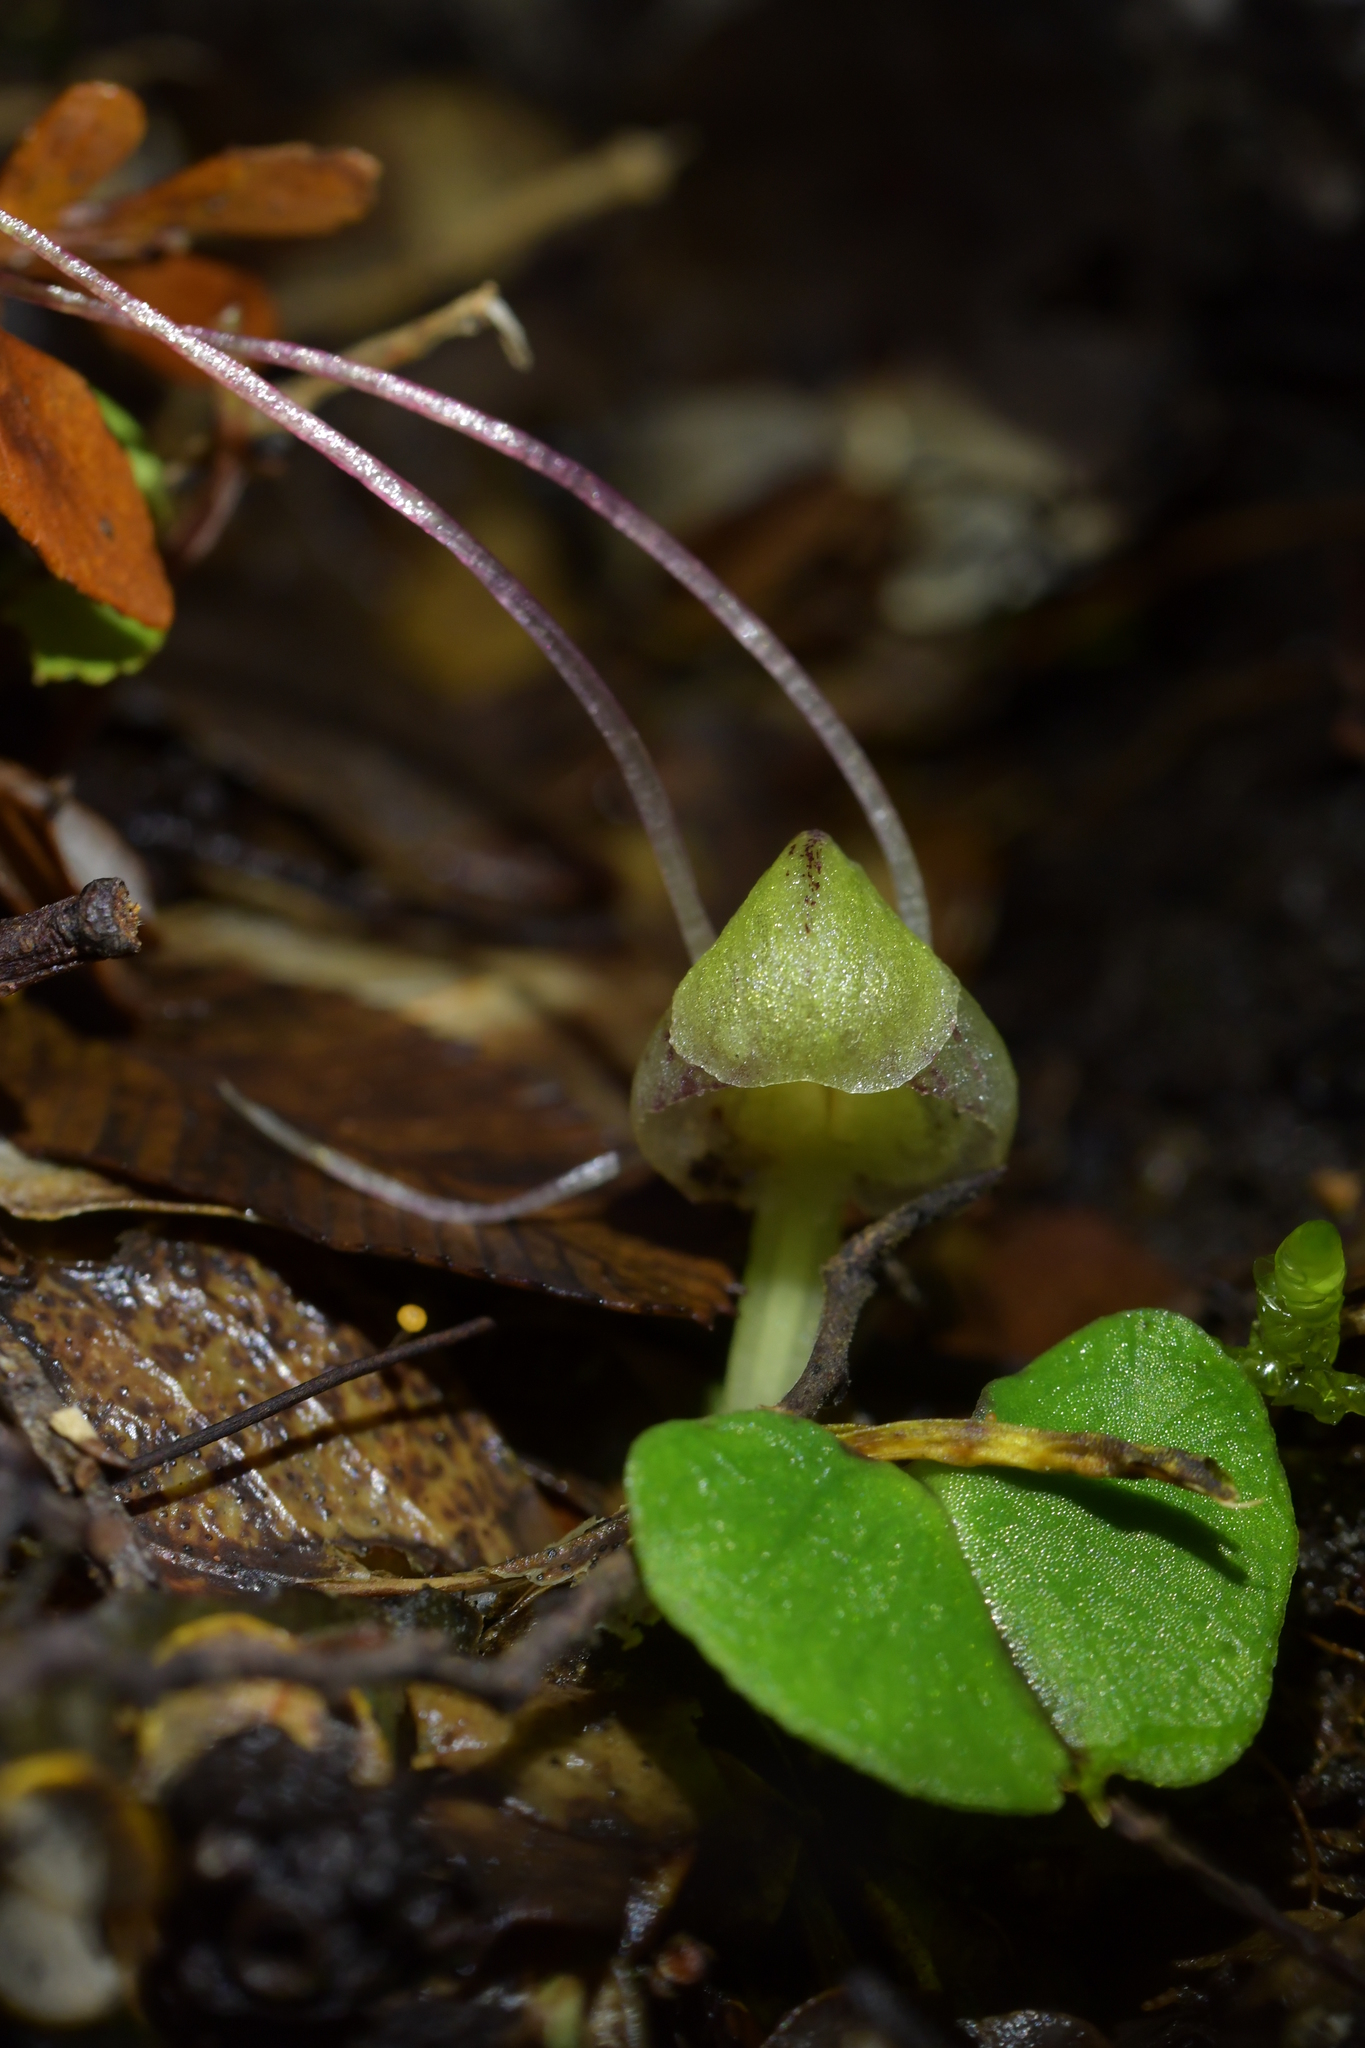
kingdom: Plantae
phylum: Tracheophyta
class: Liliopsida
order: Asparagales
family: Orchidaceae
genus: Corybas
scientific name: Corybas walliae
